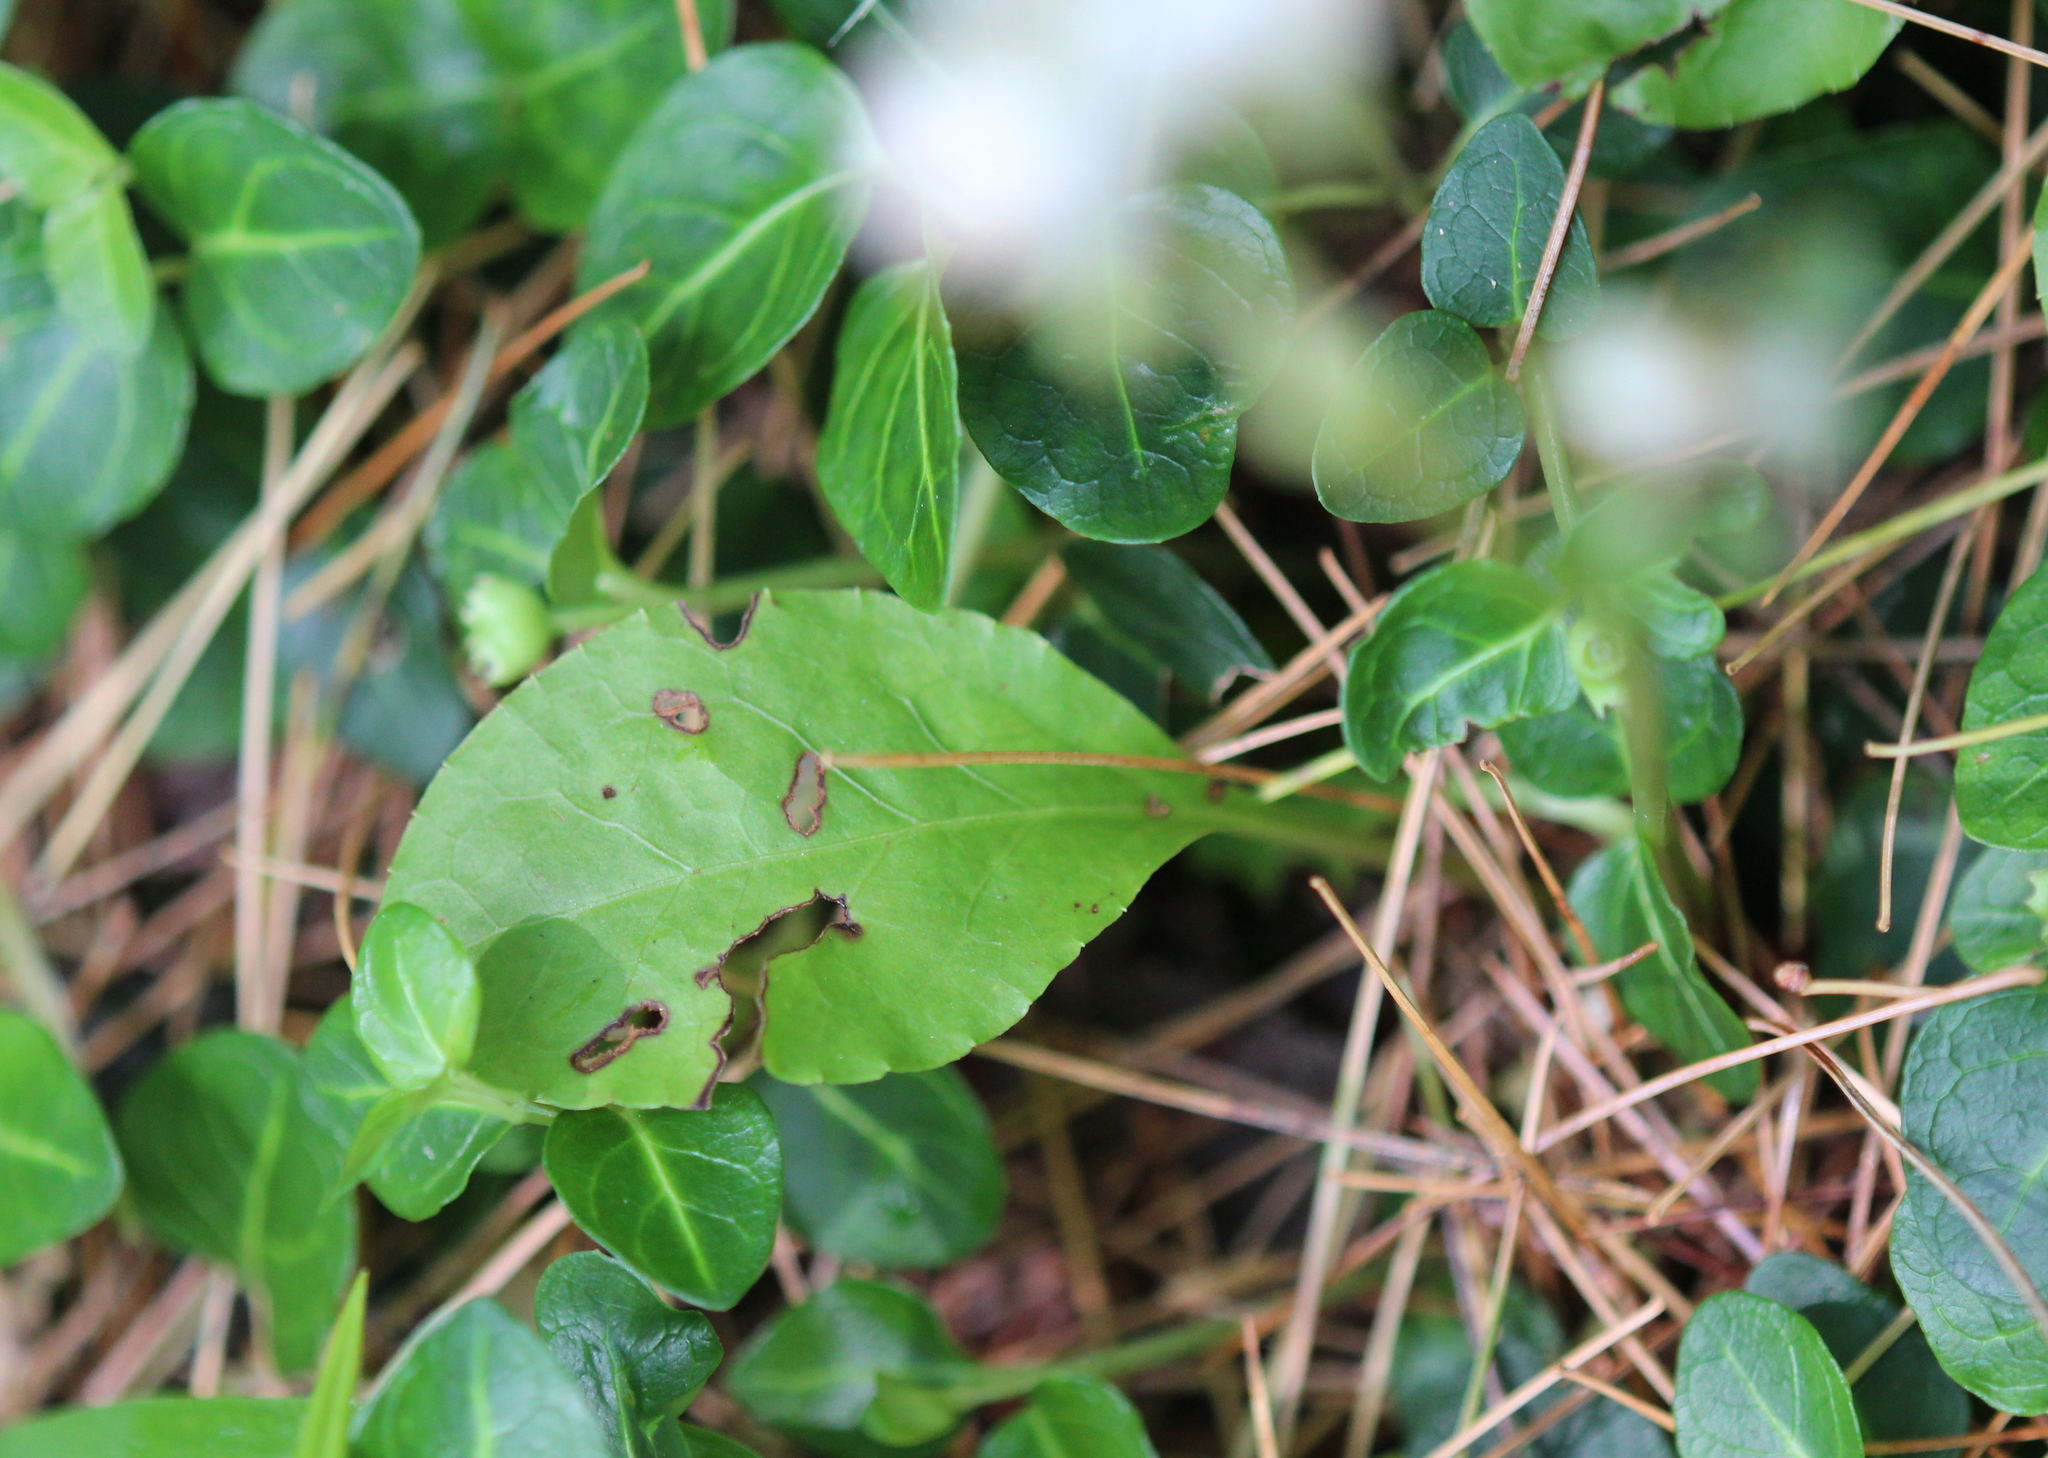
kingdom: Plantae
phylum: Tracheophyta
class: Magnoliopsida
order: Ericales
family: Ericaceae
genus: Pyrola
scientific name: Pyrola elliptica
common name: Shinleaf
